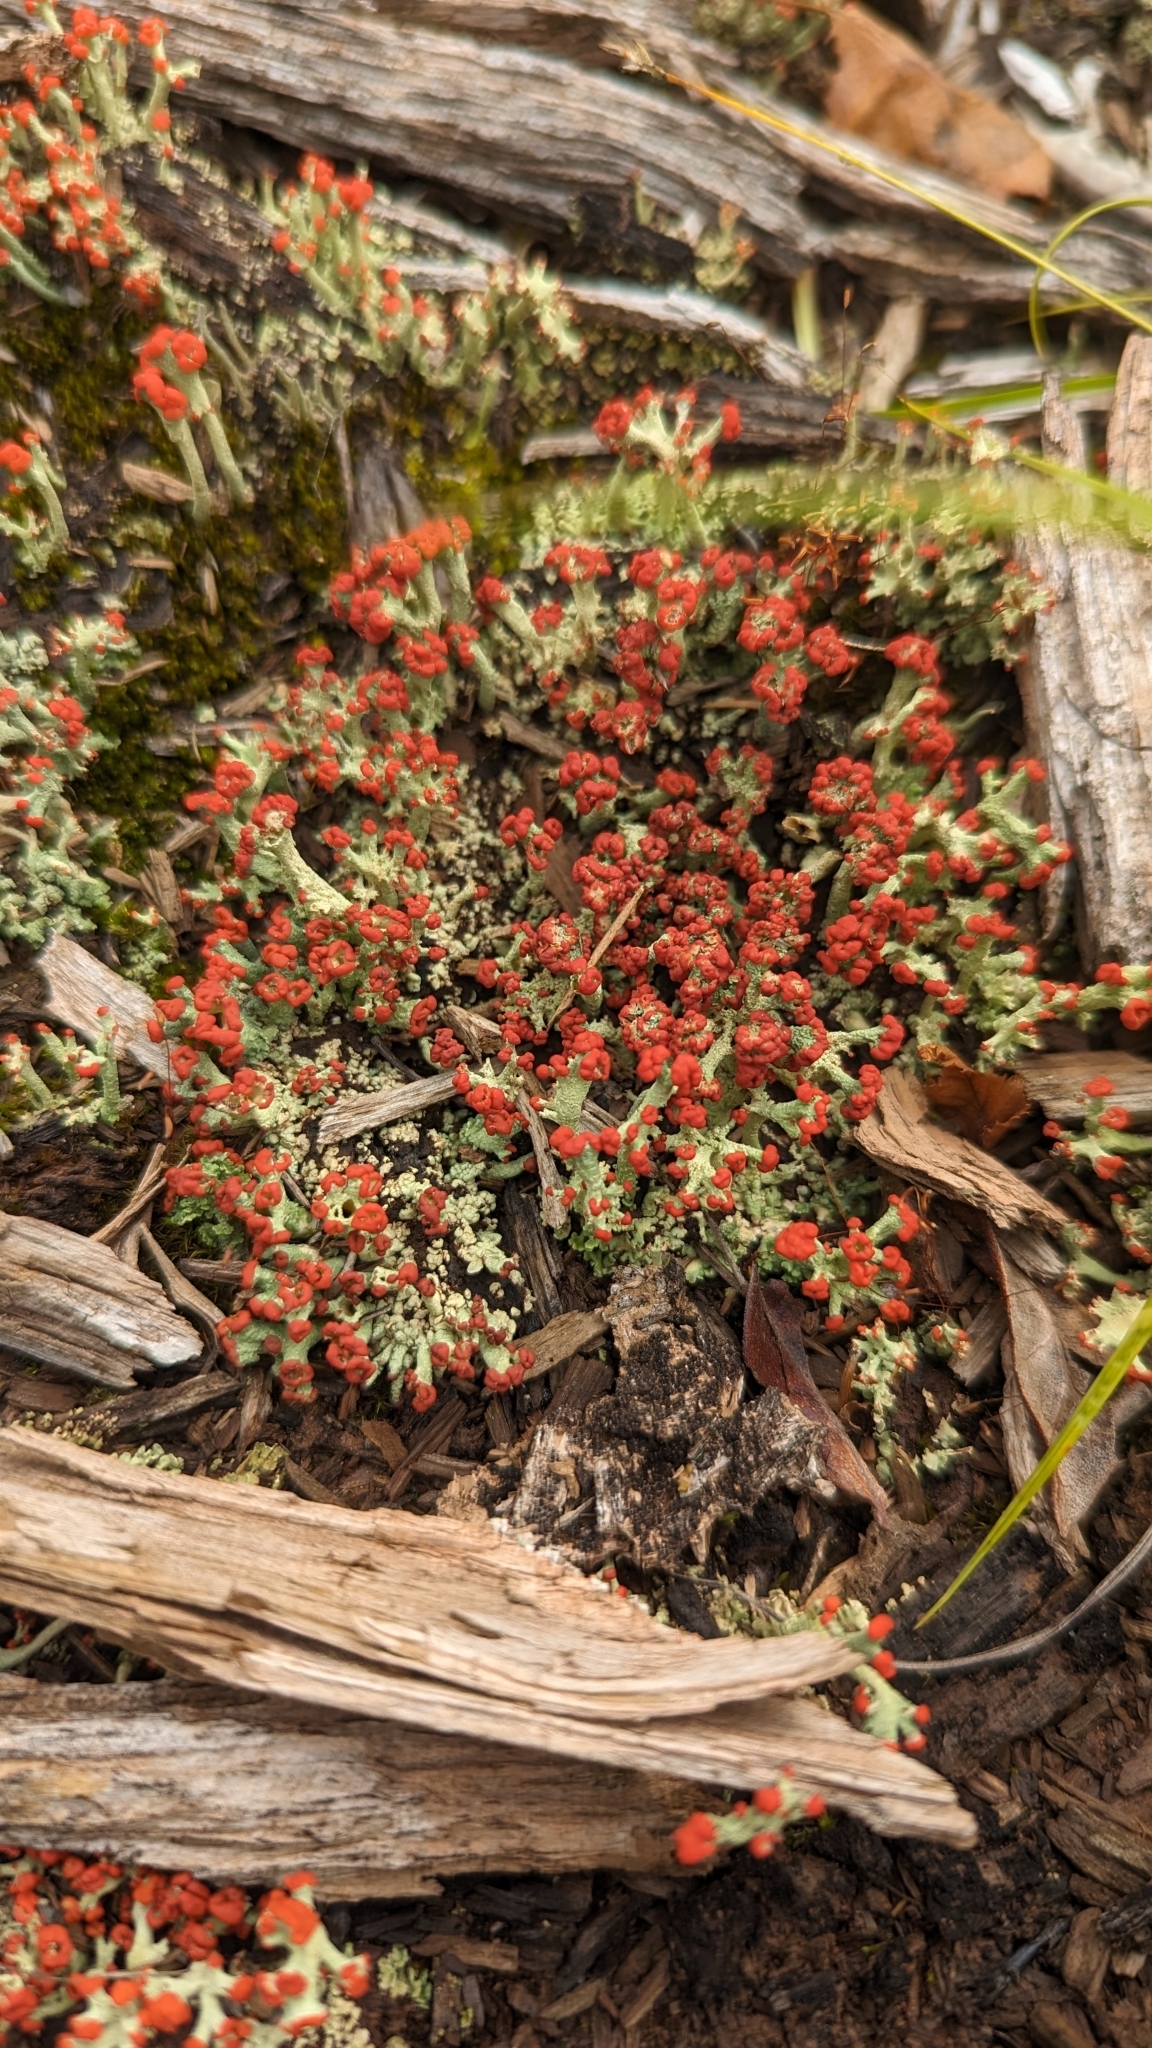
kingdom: Fungi
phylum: Ascomycota
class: Lecanoromycetes
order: Lecanorales
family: Cladoniaceae
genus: Cladonia
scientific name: Cladonia cristatella
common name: British soldier lichen
